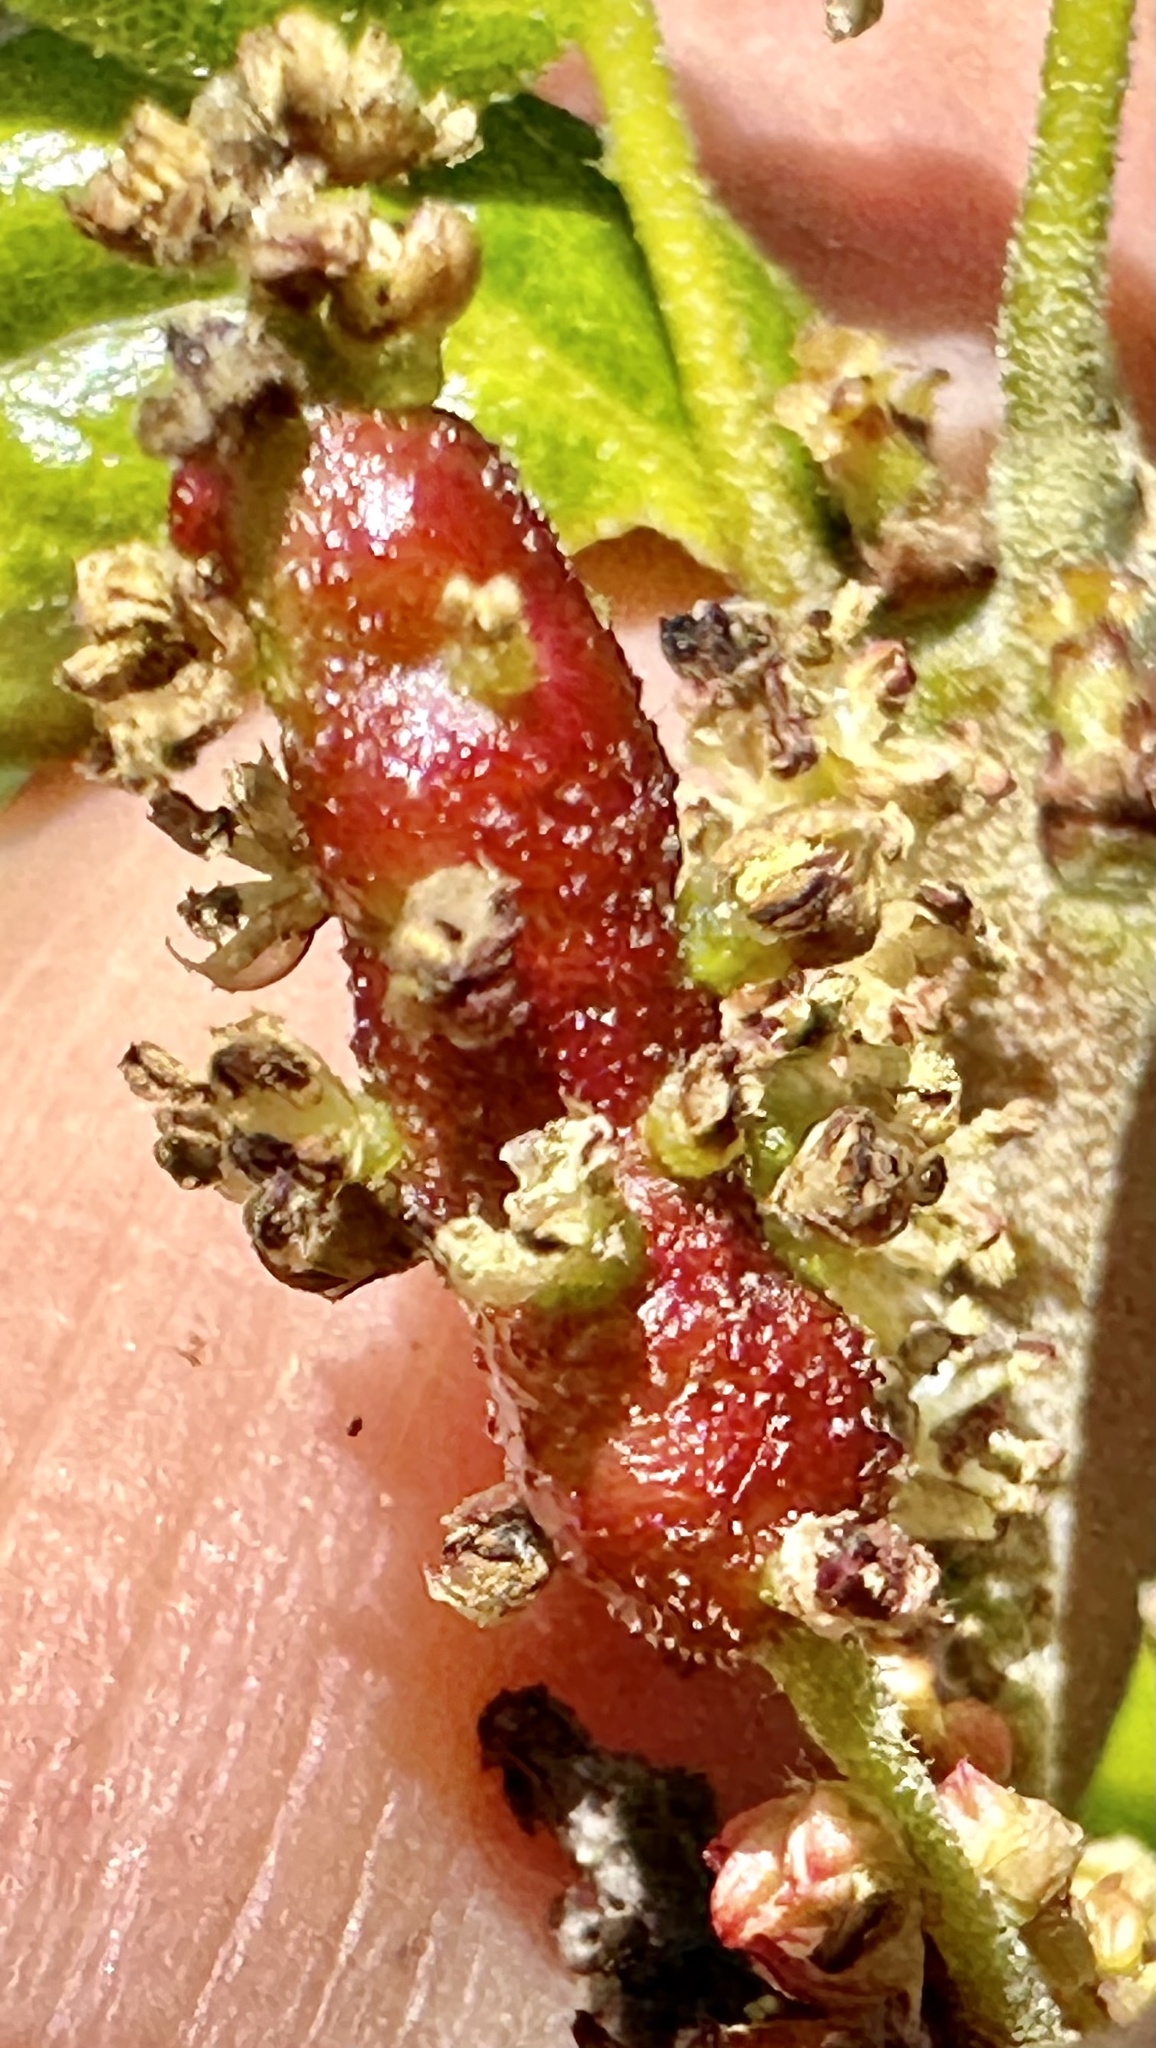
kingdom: Animalia
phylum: Arthropoda
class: Insecta
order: Hymenoptera
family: Cynipidae
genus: Callirhytis
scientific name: Callirhytis
